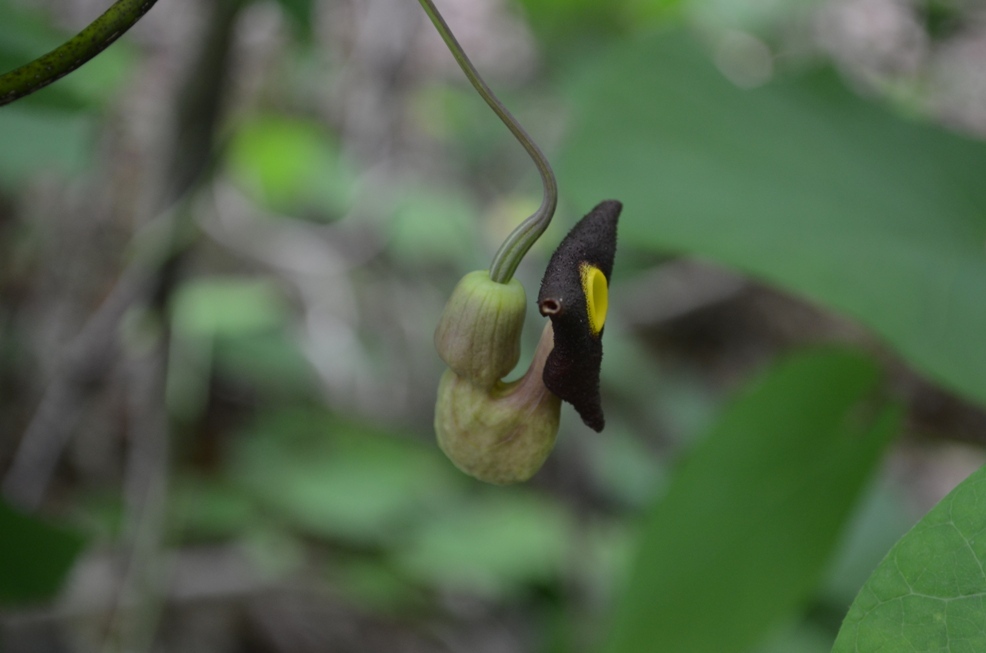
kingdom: Plantae
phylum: Tracheophyta
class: Magnoliopsida
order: Piperales
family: Aristolochiaceae
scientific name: Aristolochiaceae
